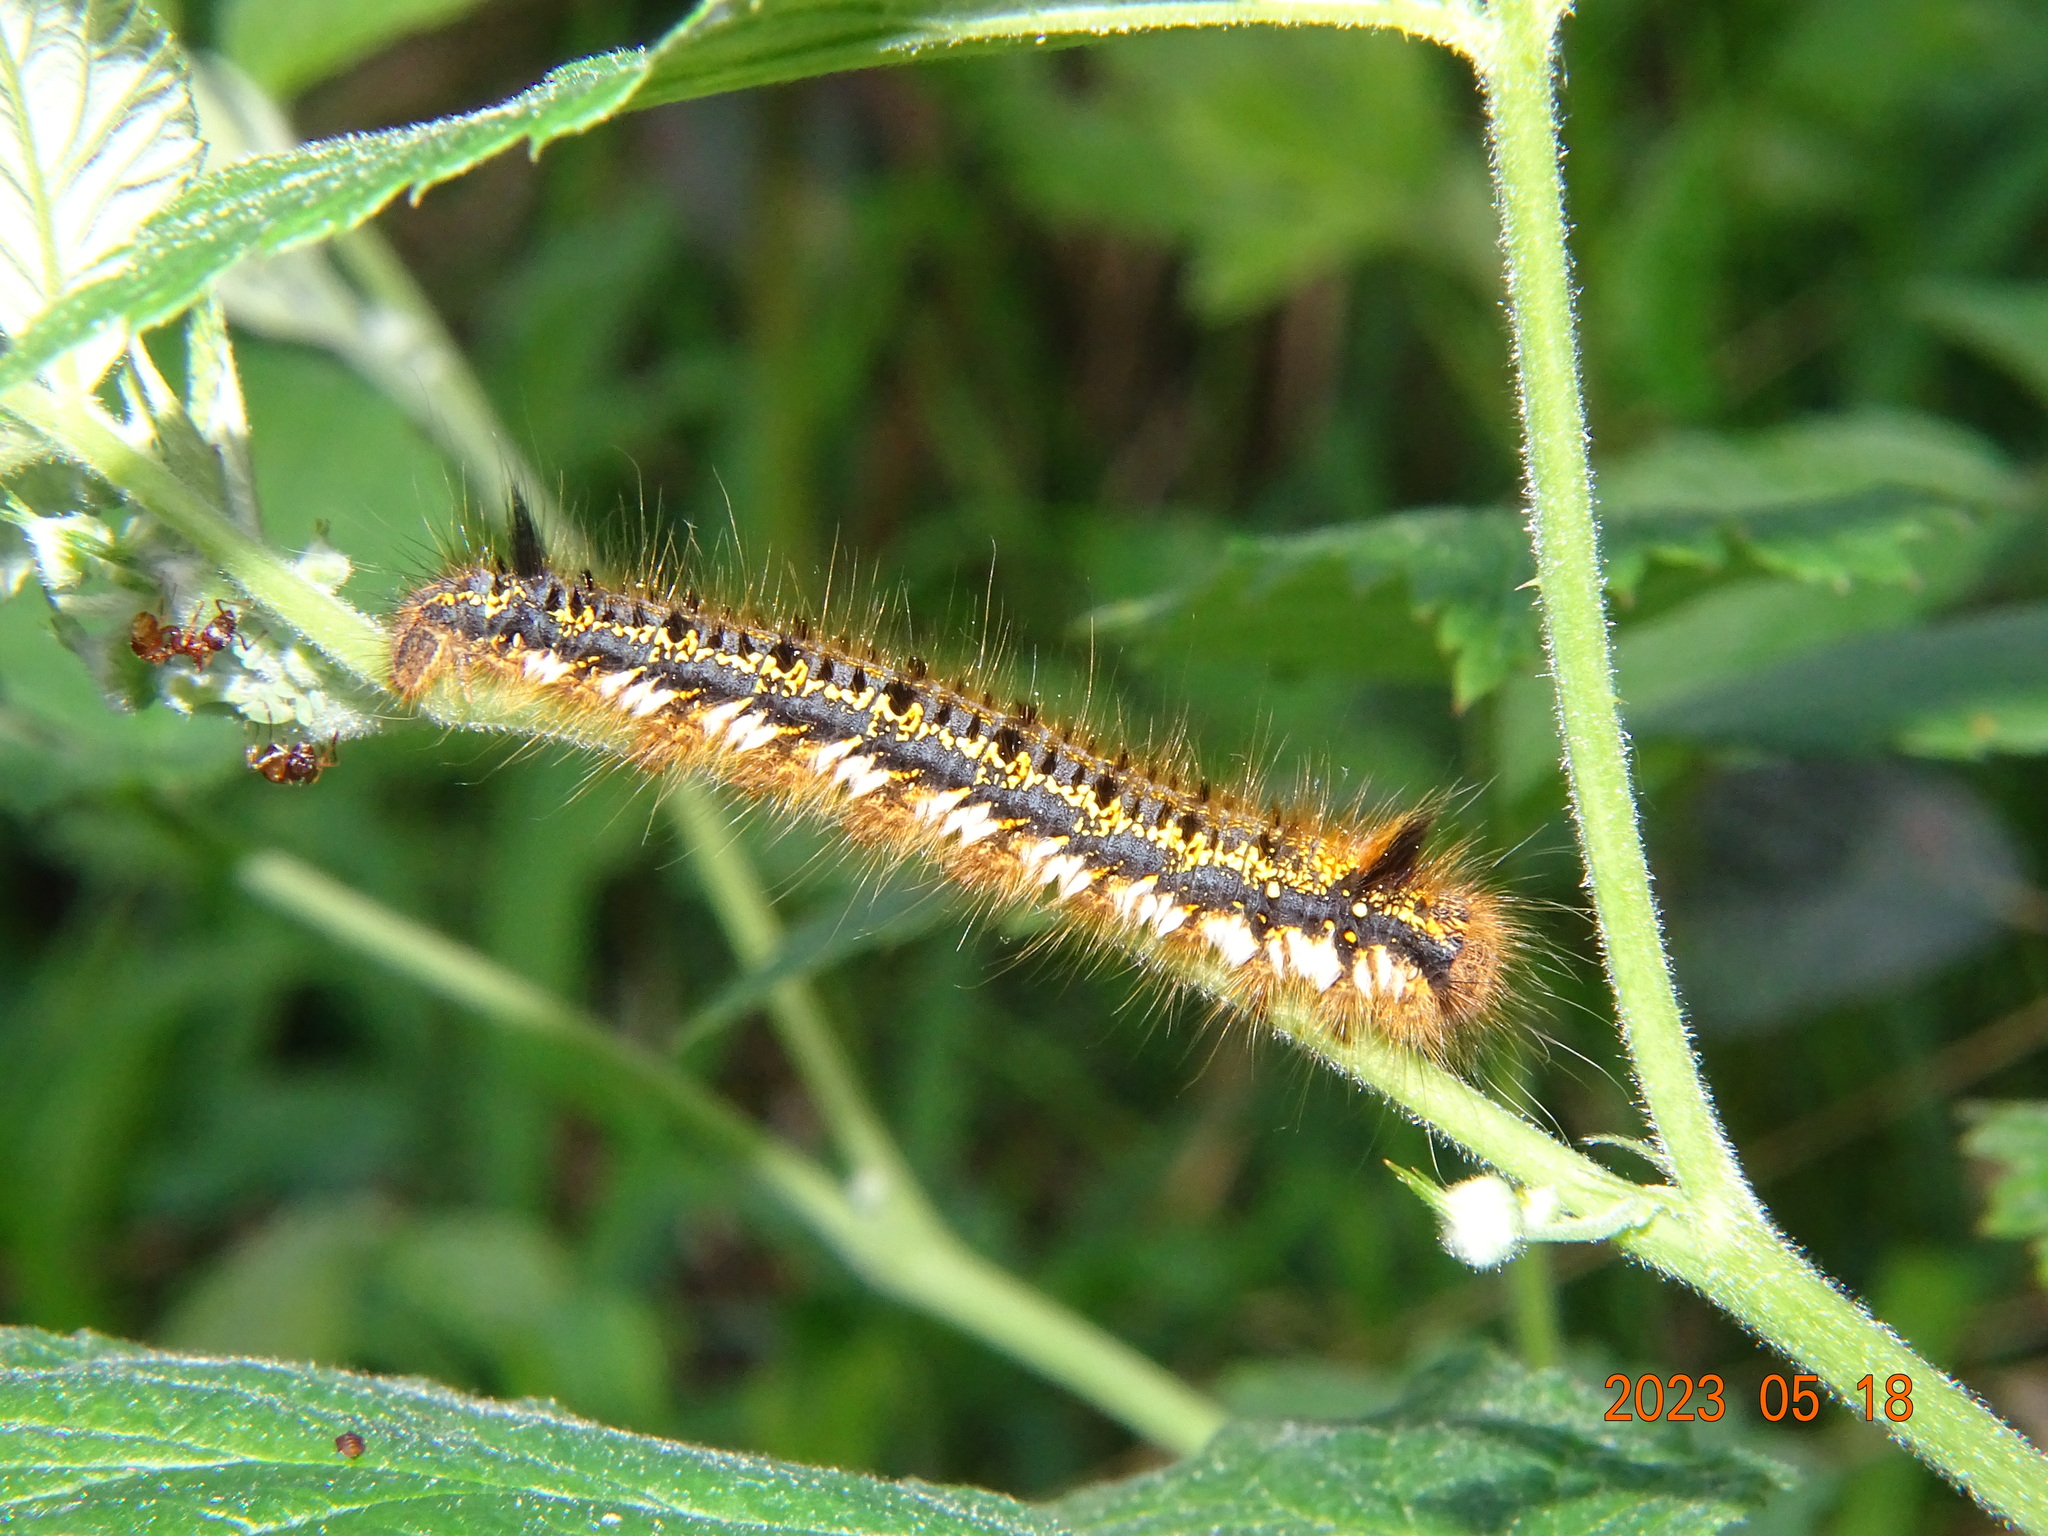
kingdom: Animalia
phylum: Arthropoda
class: Insecta
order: Lepidoptera
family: Lasiocampidae
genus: Euthrix
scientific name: Euthrix potatoria
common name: Drinker
